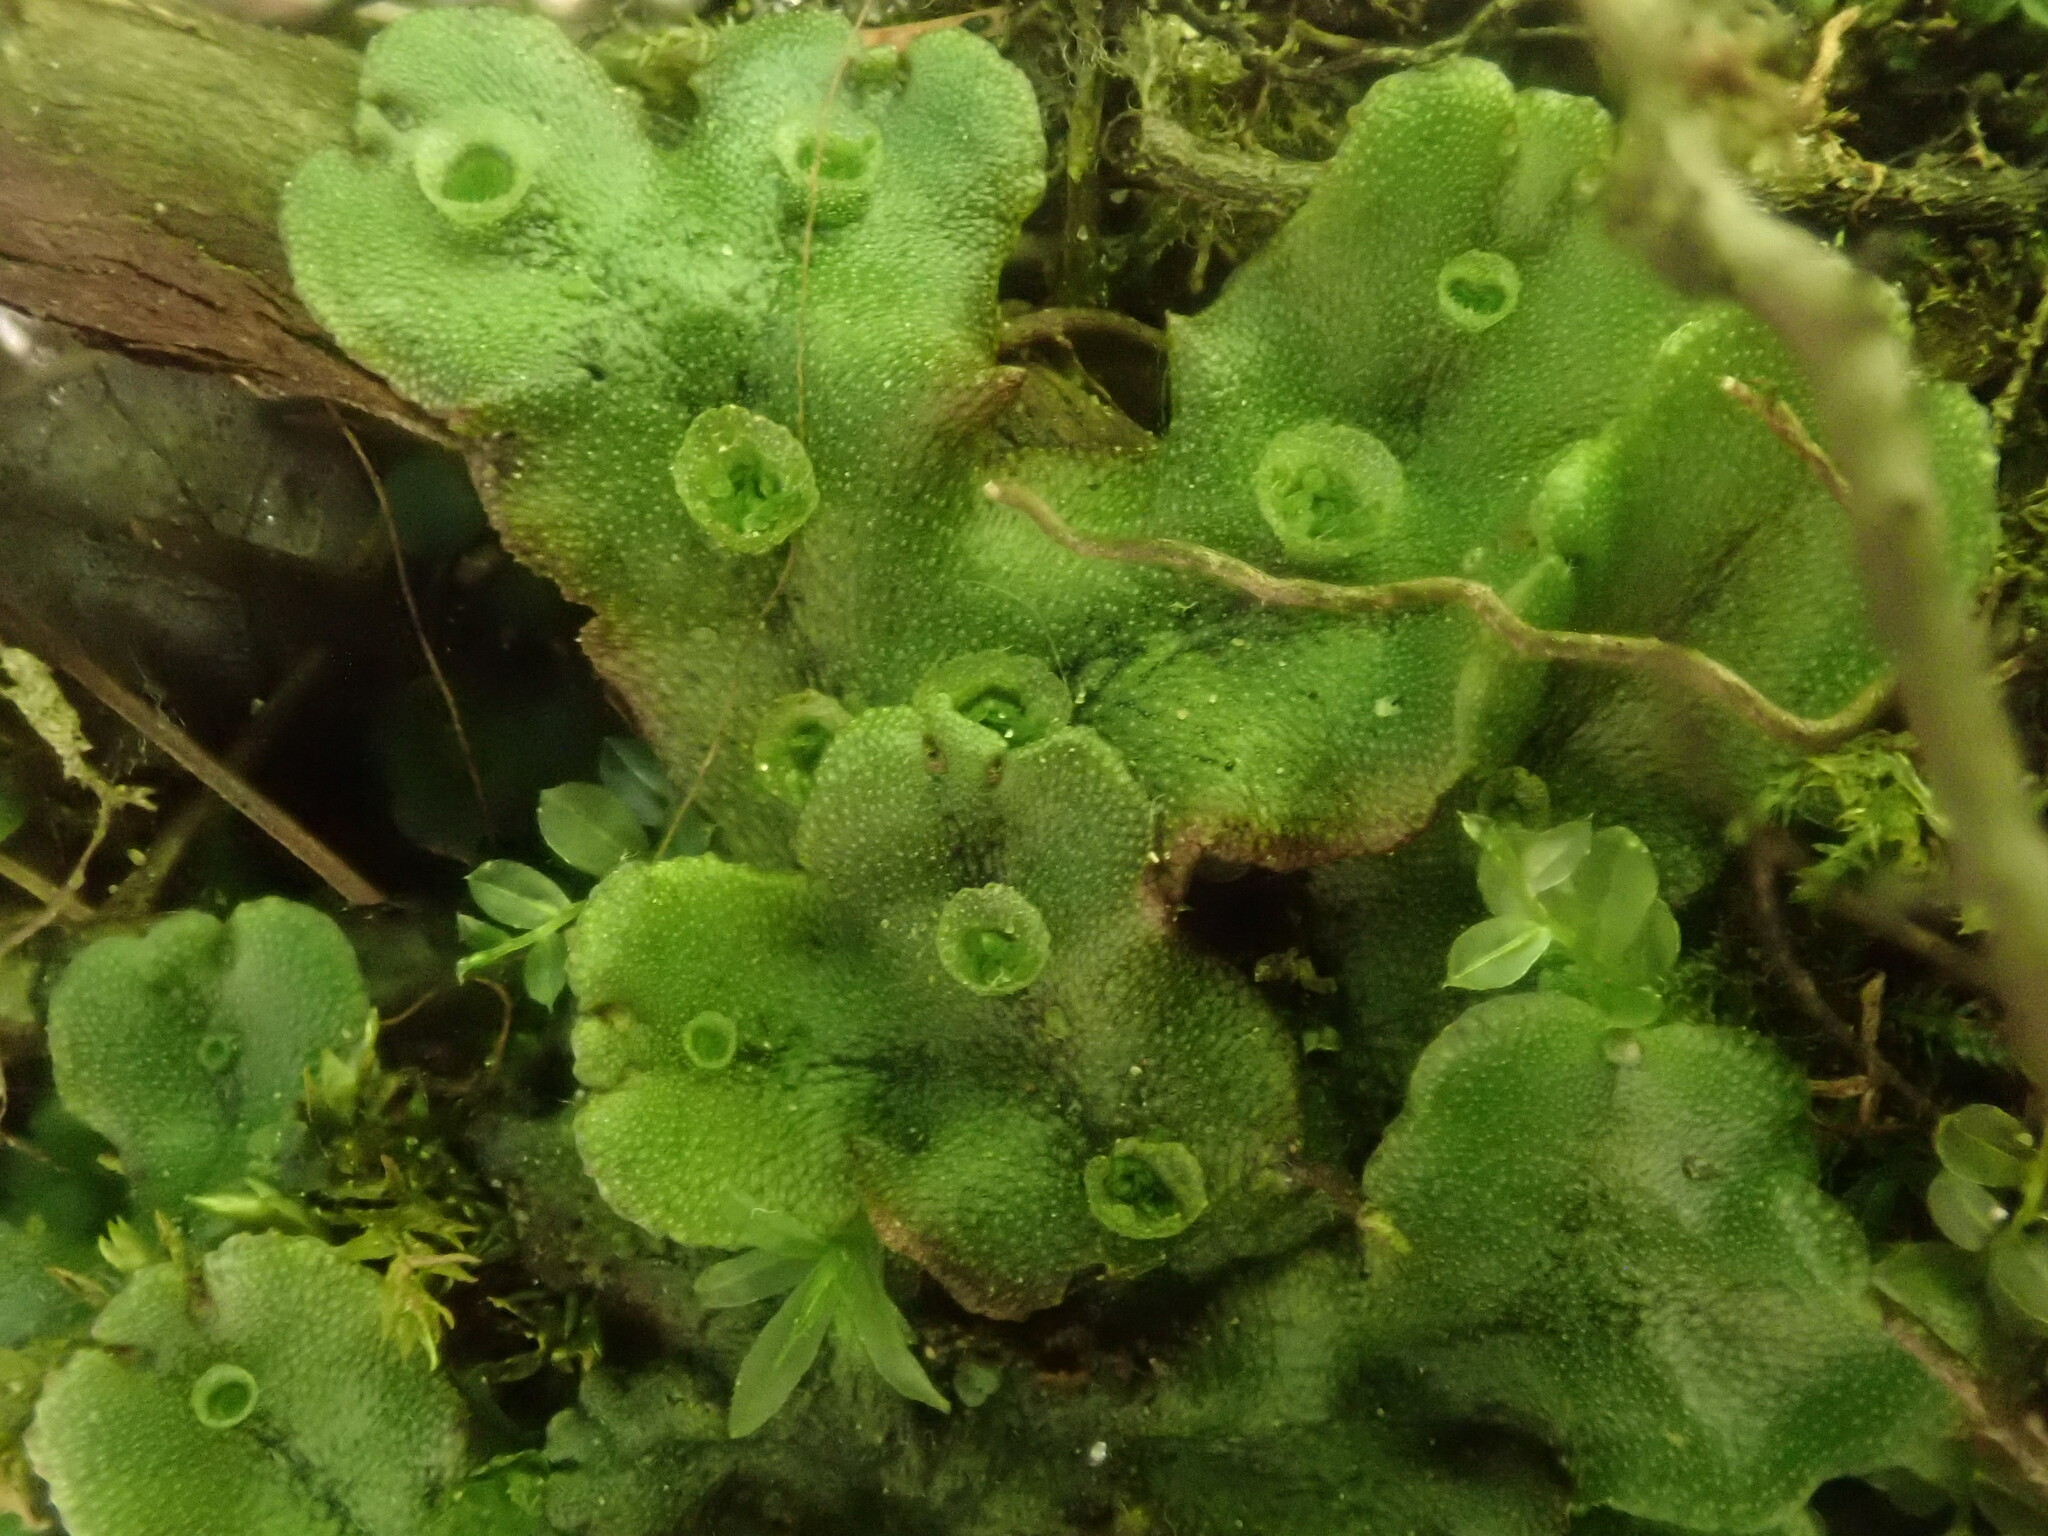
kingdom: Plantae
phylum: Marchantiophyta
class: Marchantiopsida
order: Marchantiales
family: Marchantiaceae
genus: Marchantia
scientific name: Marchantia polymorpha
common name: Common liverwort
